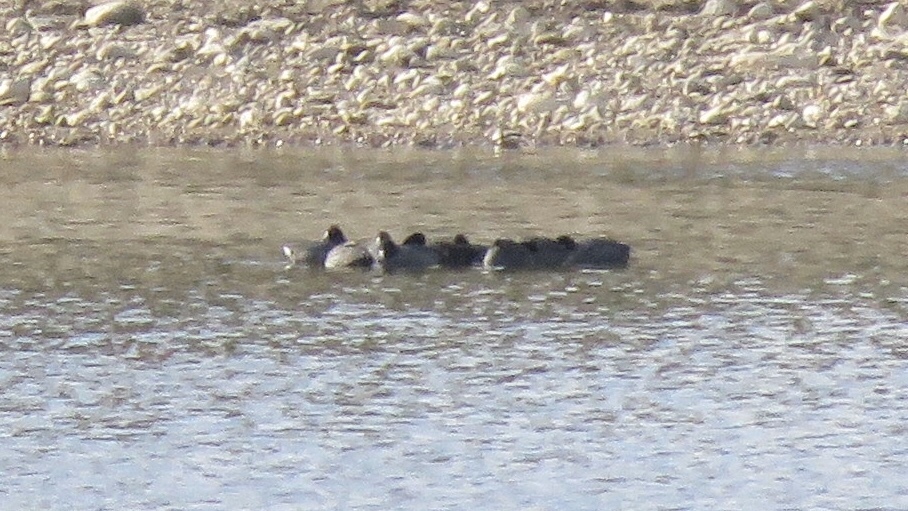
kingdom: Animalia
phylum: Chordata
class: Aves
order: Gruiformes
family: Rallidae
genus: Fulica
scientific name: Fulica americana
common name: American coot
